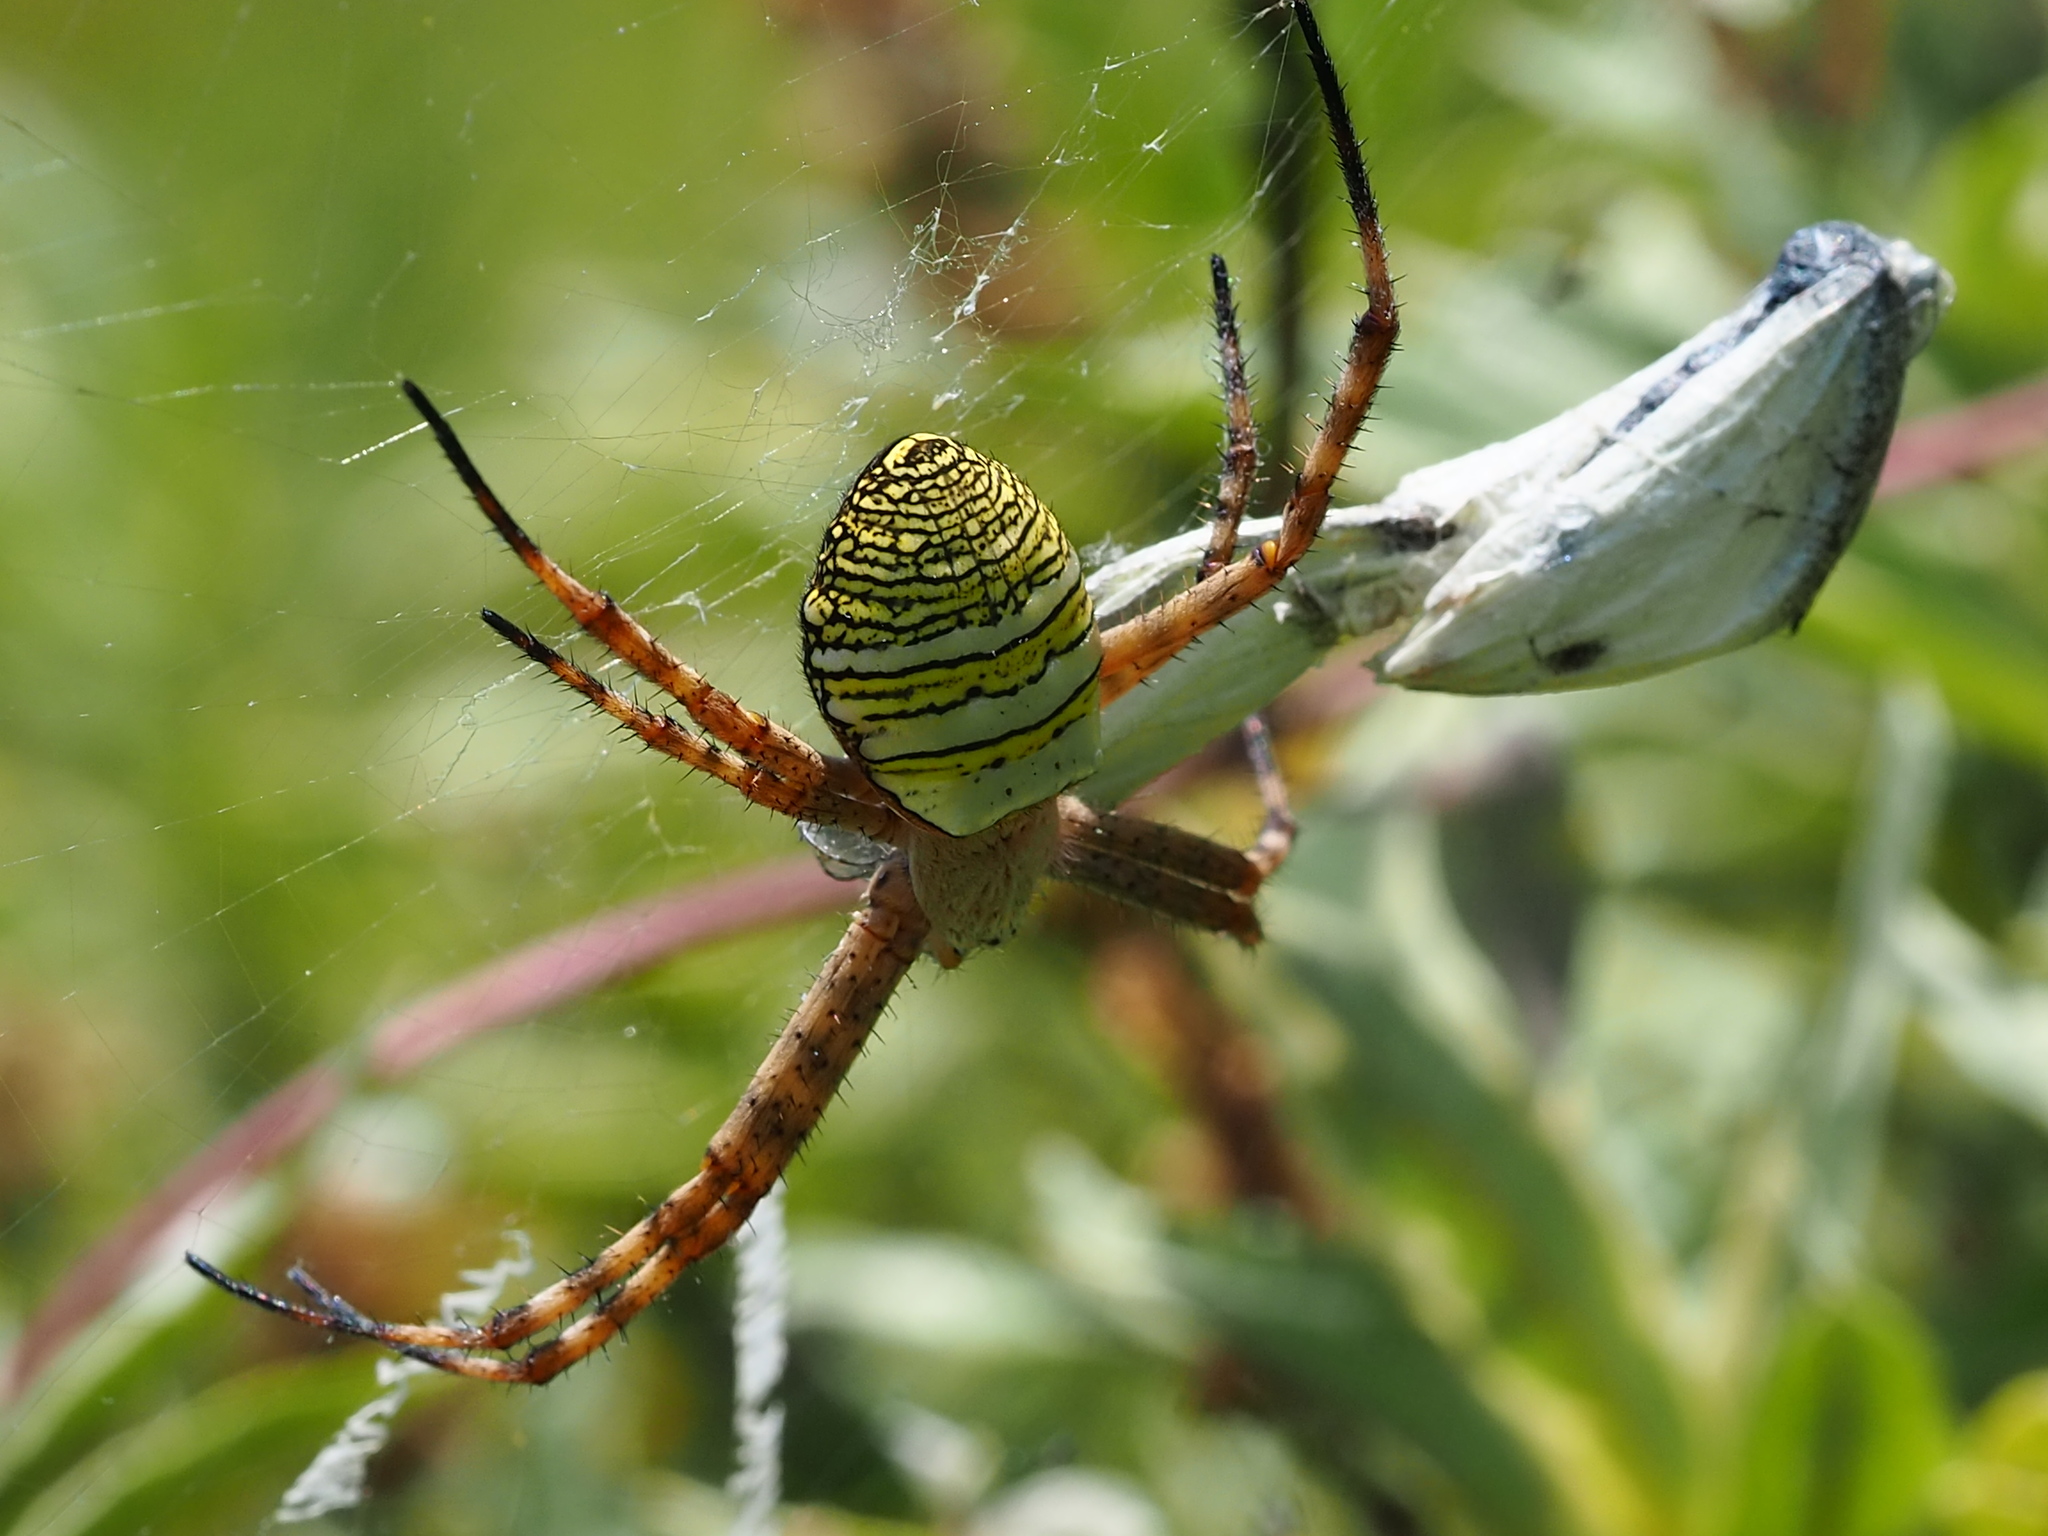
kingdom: Animalia
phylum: Arthropoda
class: Arachnida
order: Araneae
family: Araneidae
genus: Argiope
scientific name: Argiope aemula
